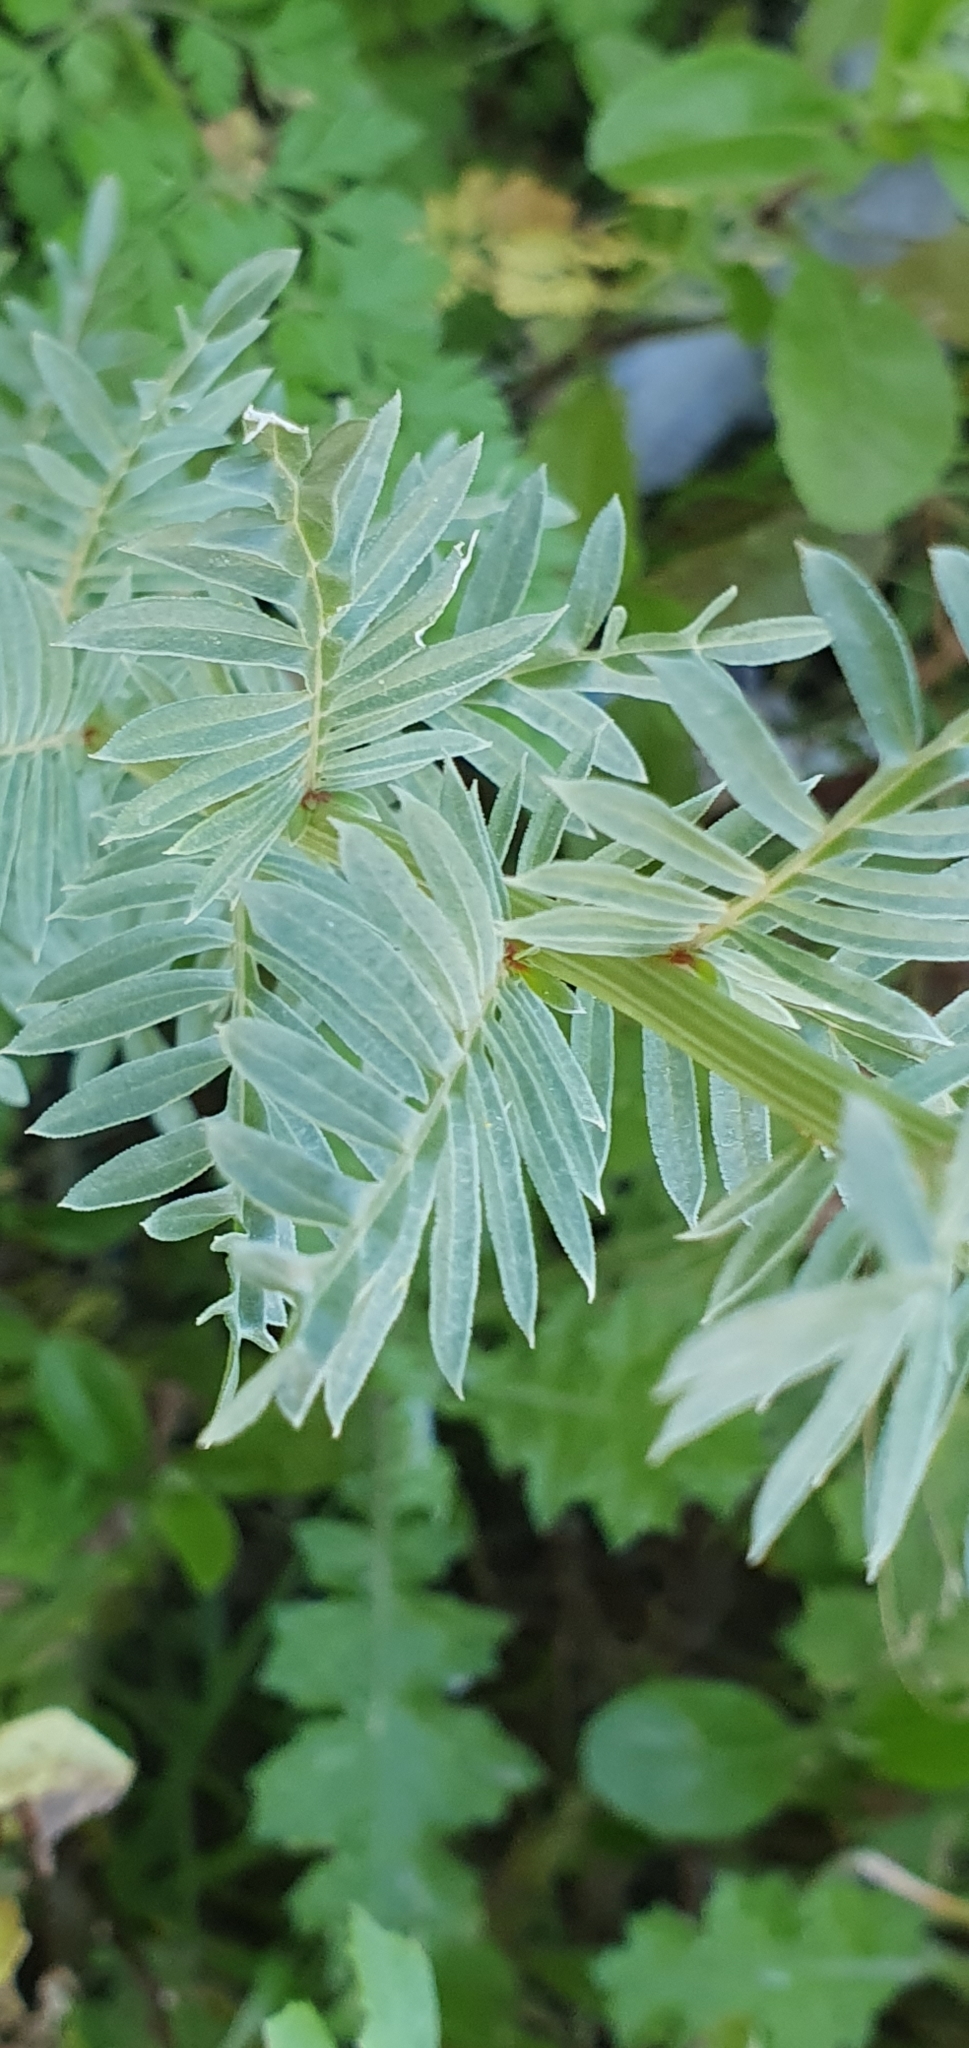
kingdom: Plantae
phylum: Tracheophyta
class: Magnoliopsida
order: Brassicales
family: Resedaceae
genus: Reseda
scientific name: Reseda decursiva
